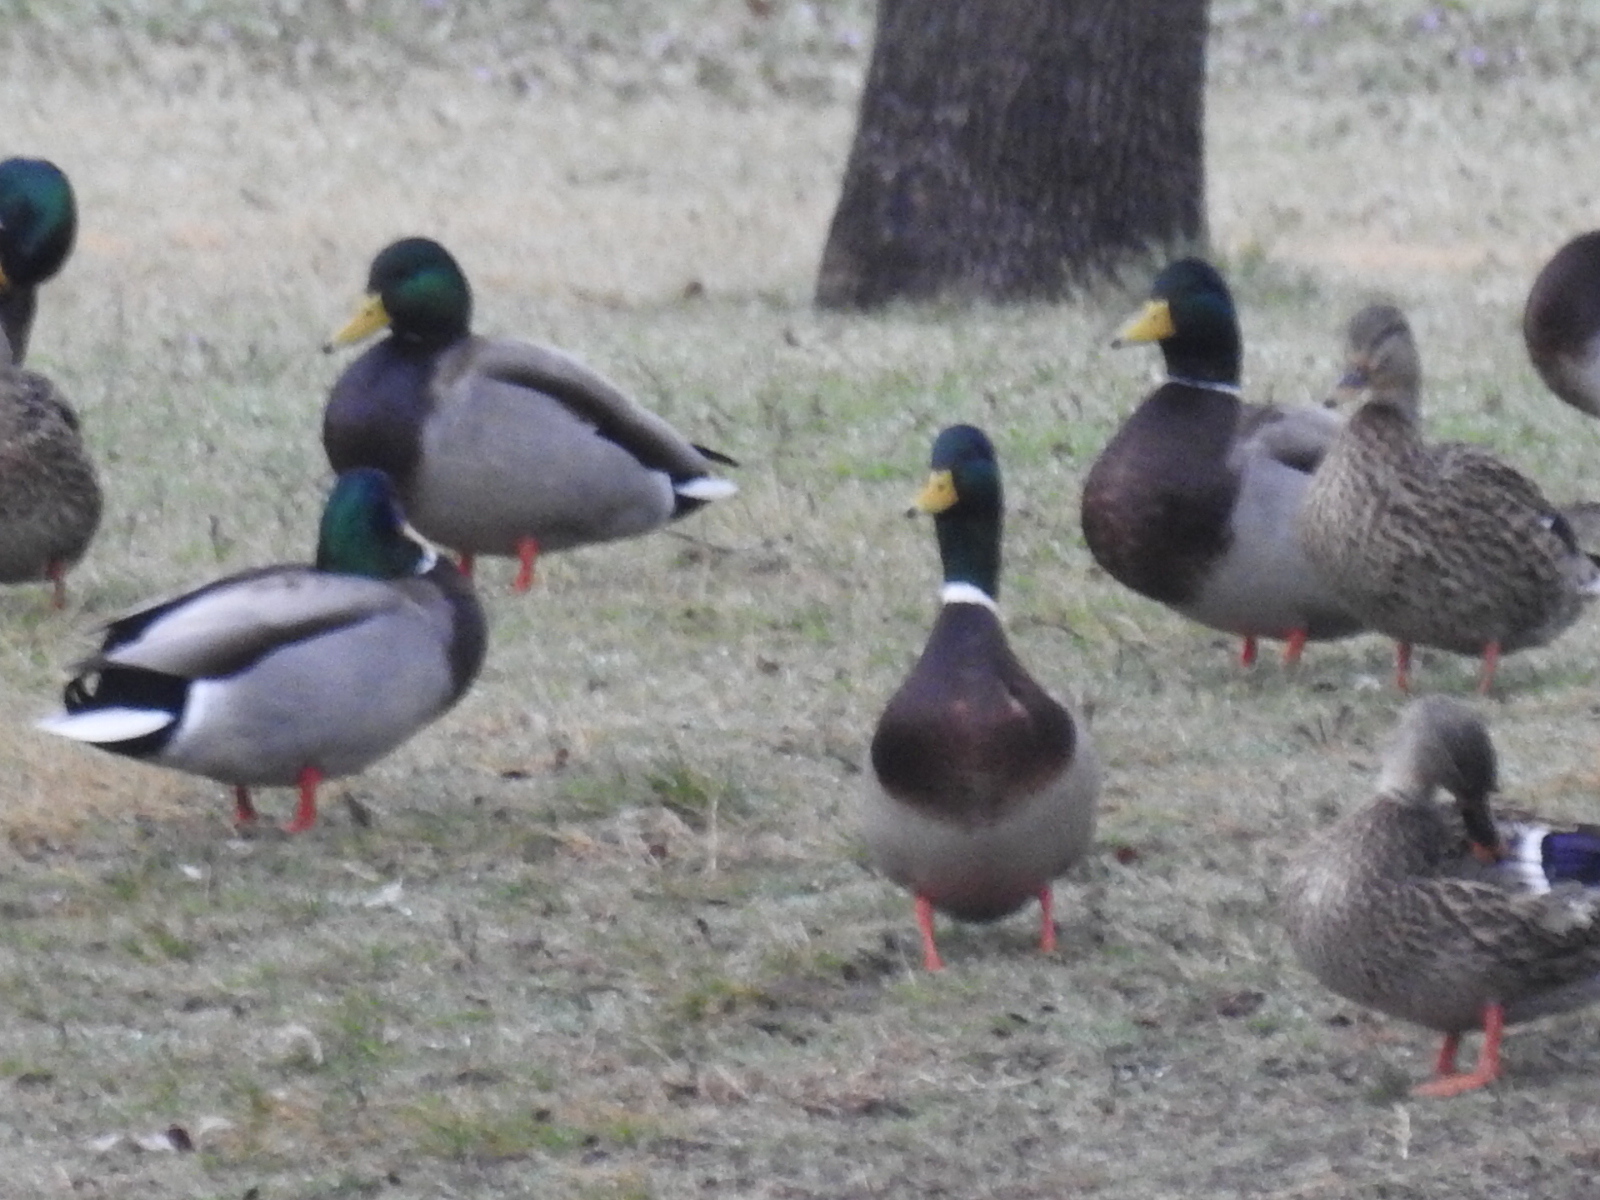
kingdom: Animalia
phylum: Chordata
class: Aves
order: Anseriformes
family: Anatidae
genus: Anas
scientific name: Anas platyrhynchos
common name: Mallard
